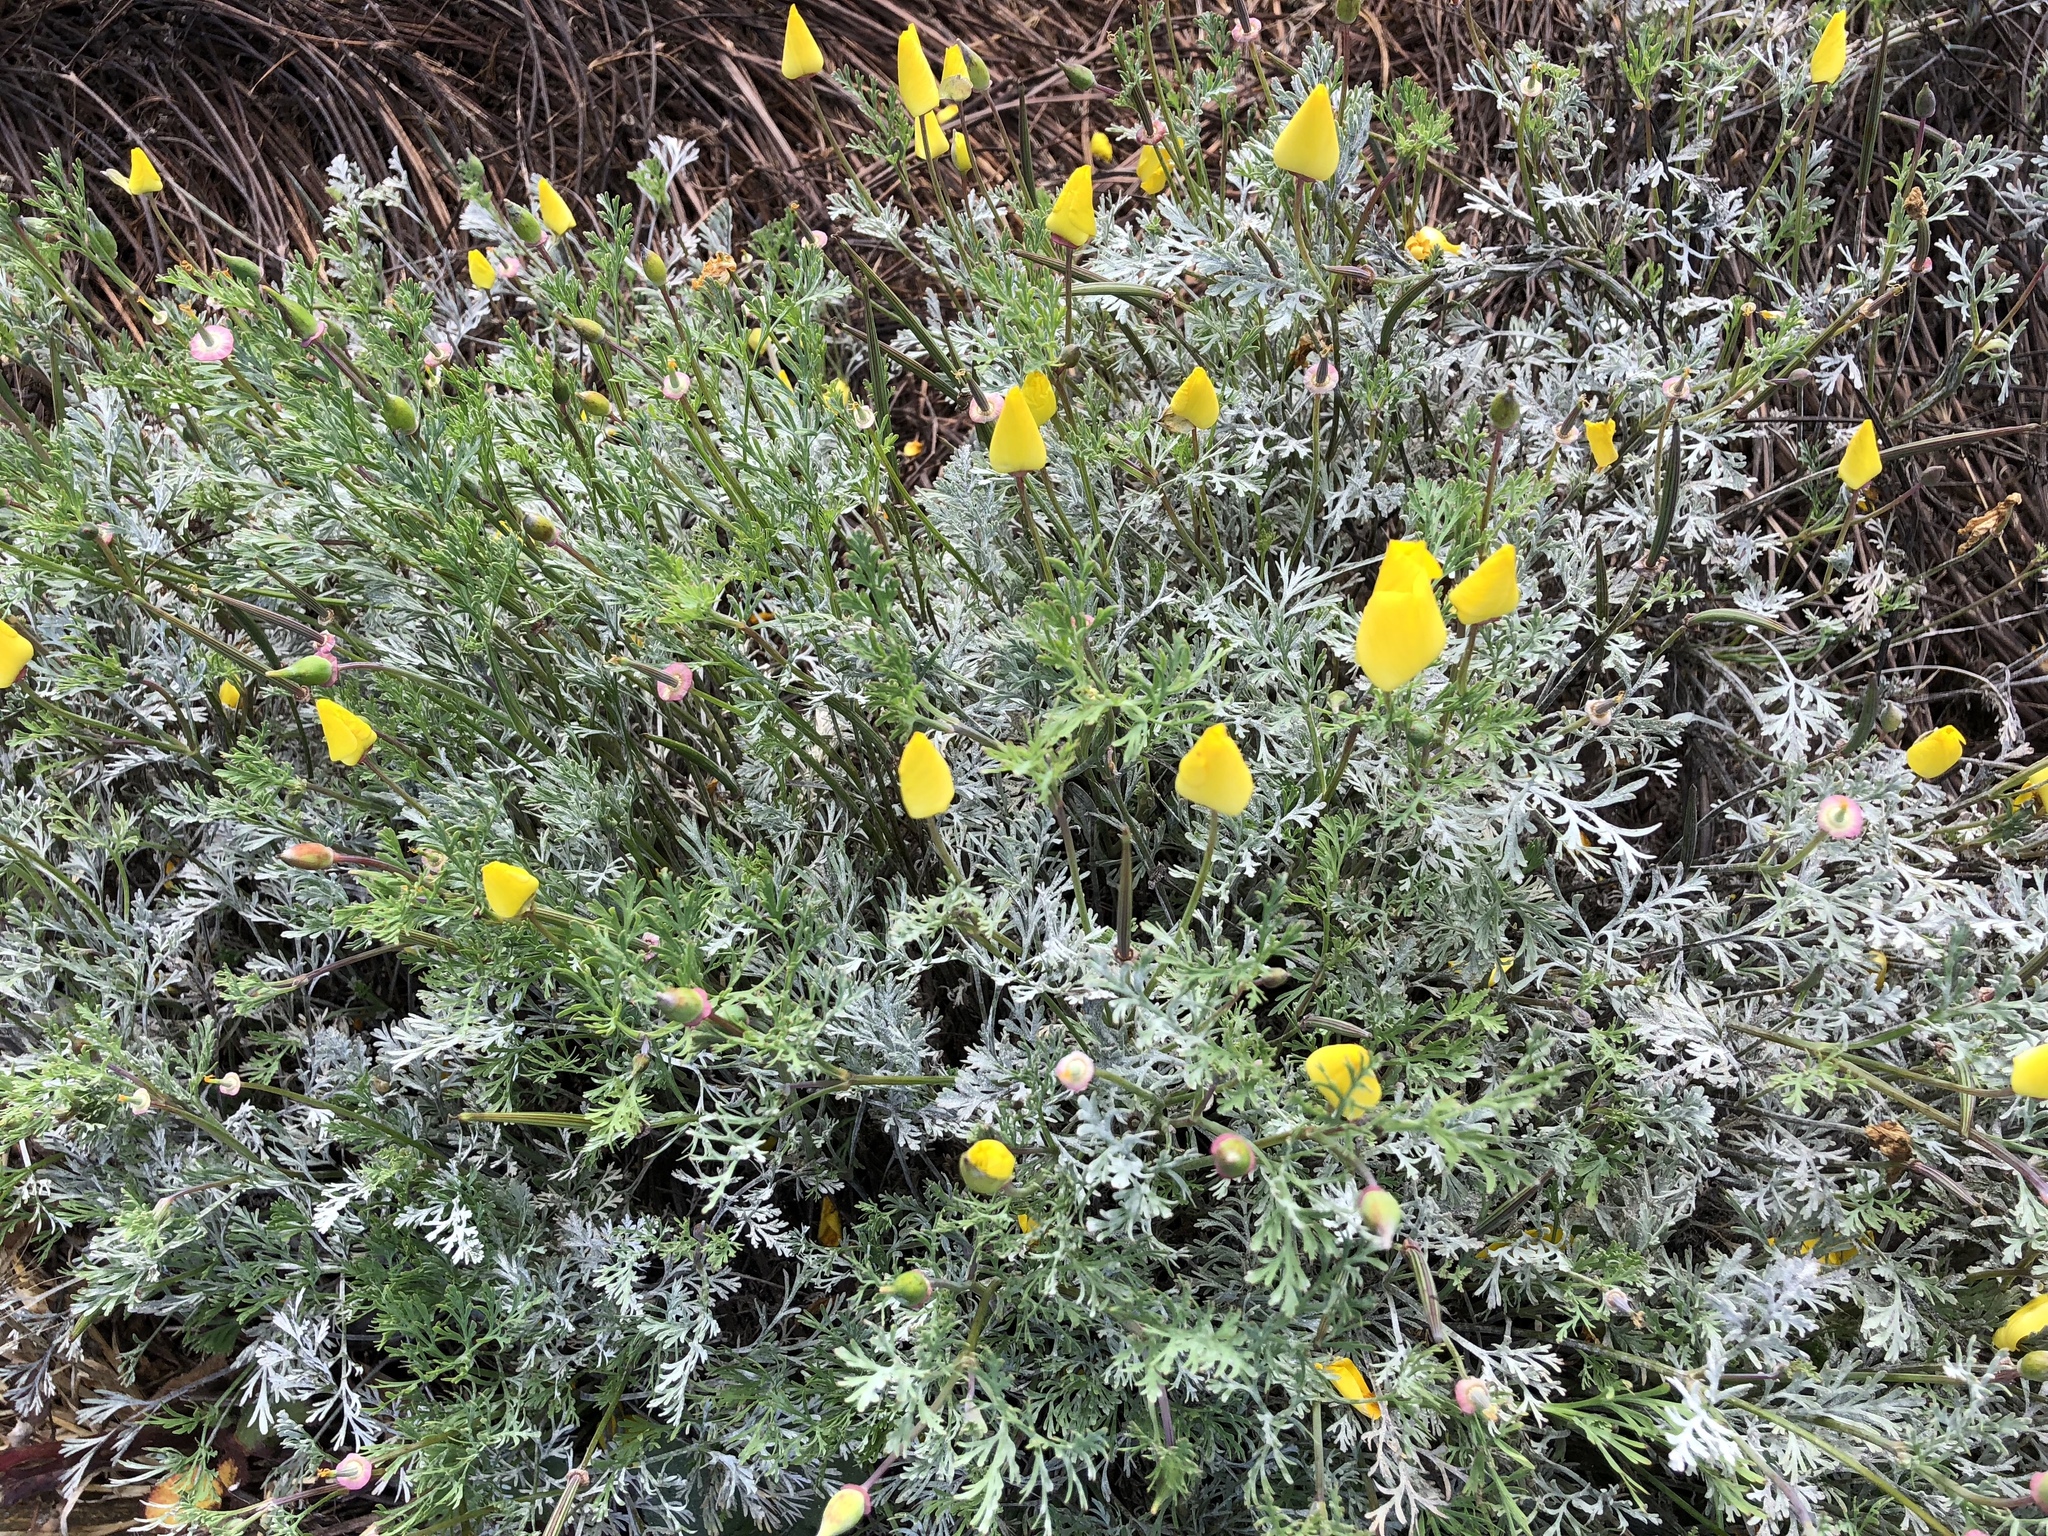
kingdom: Plantae
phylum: Tracheophyta
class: Magnoliopsida
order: Ranunculales
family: Papaveraceae
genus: Eschscholzia
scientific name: Eschscholzia californica
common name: California poppy
